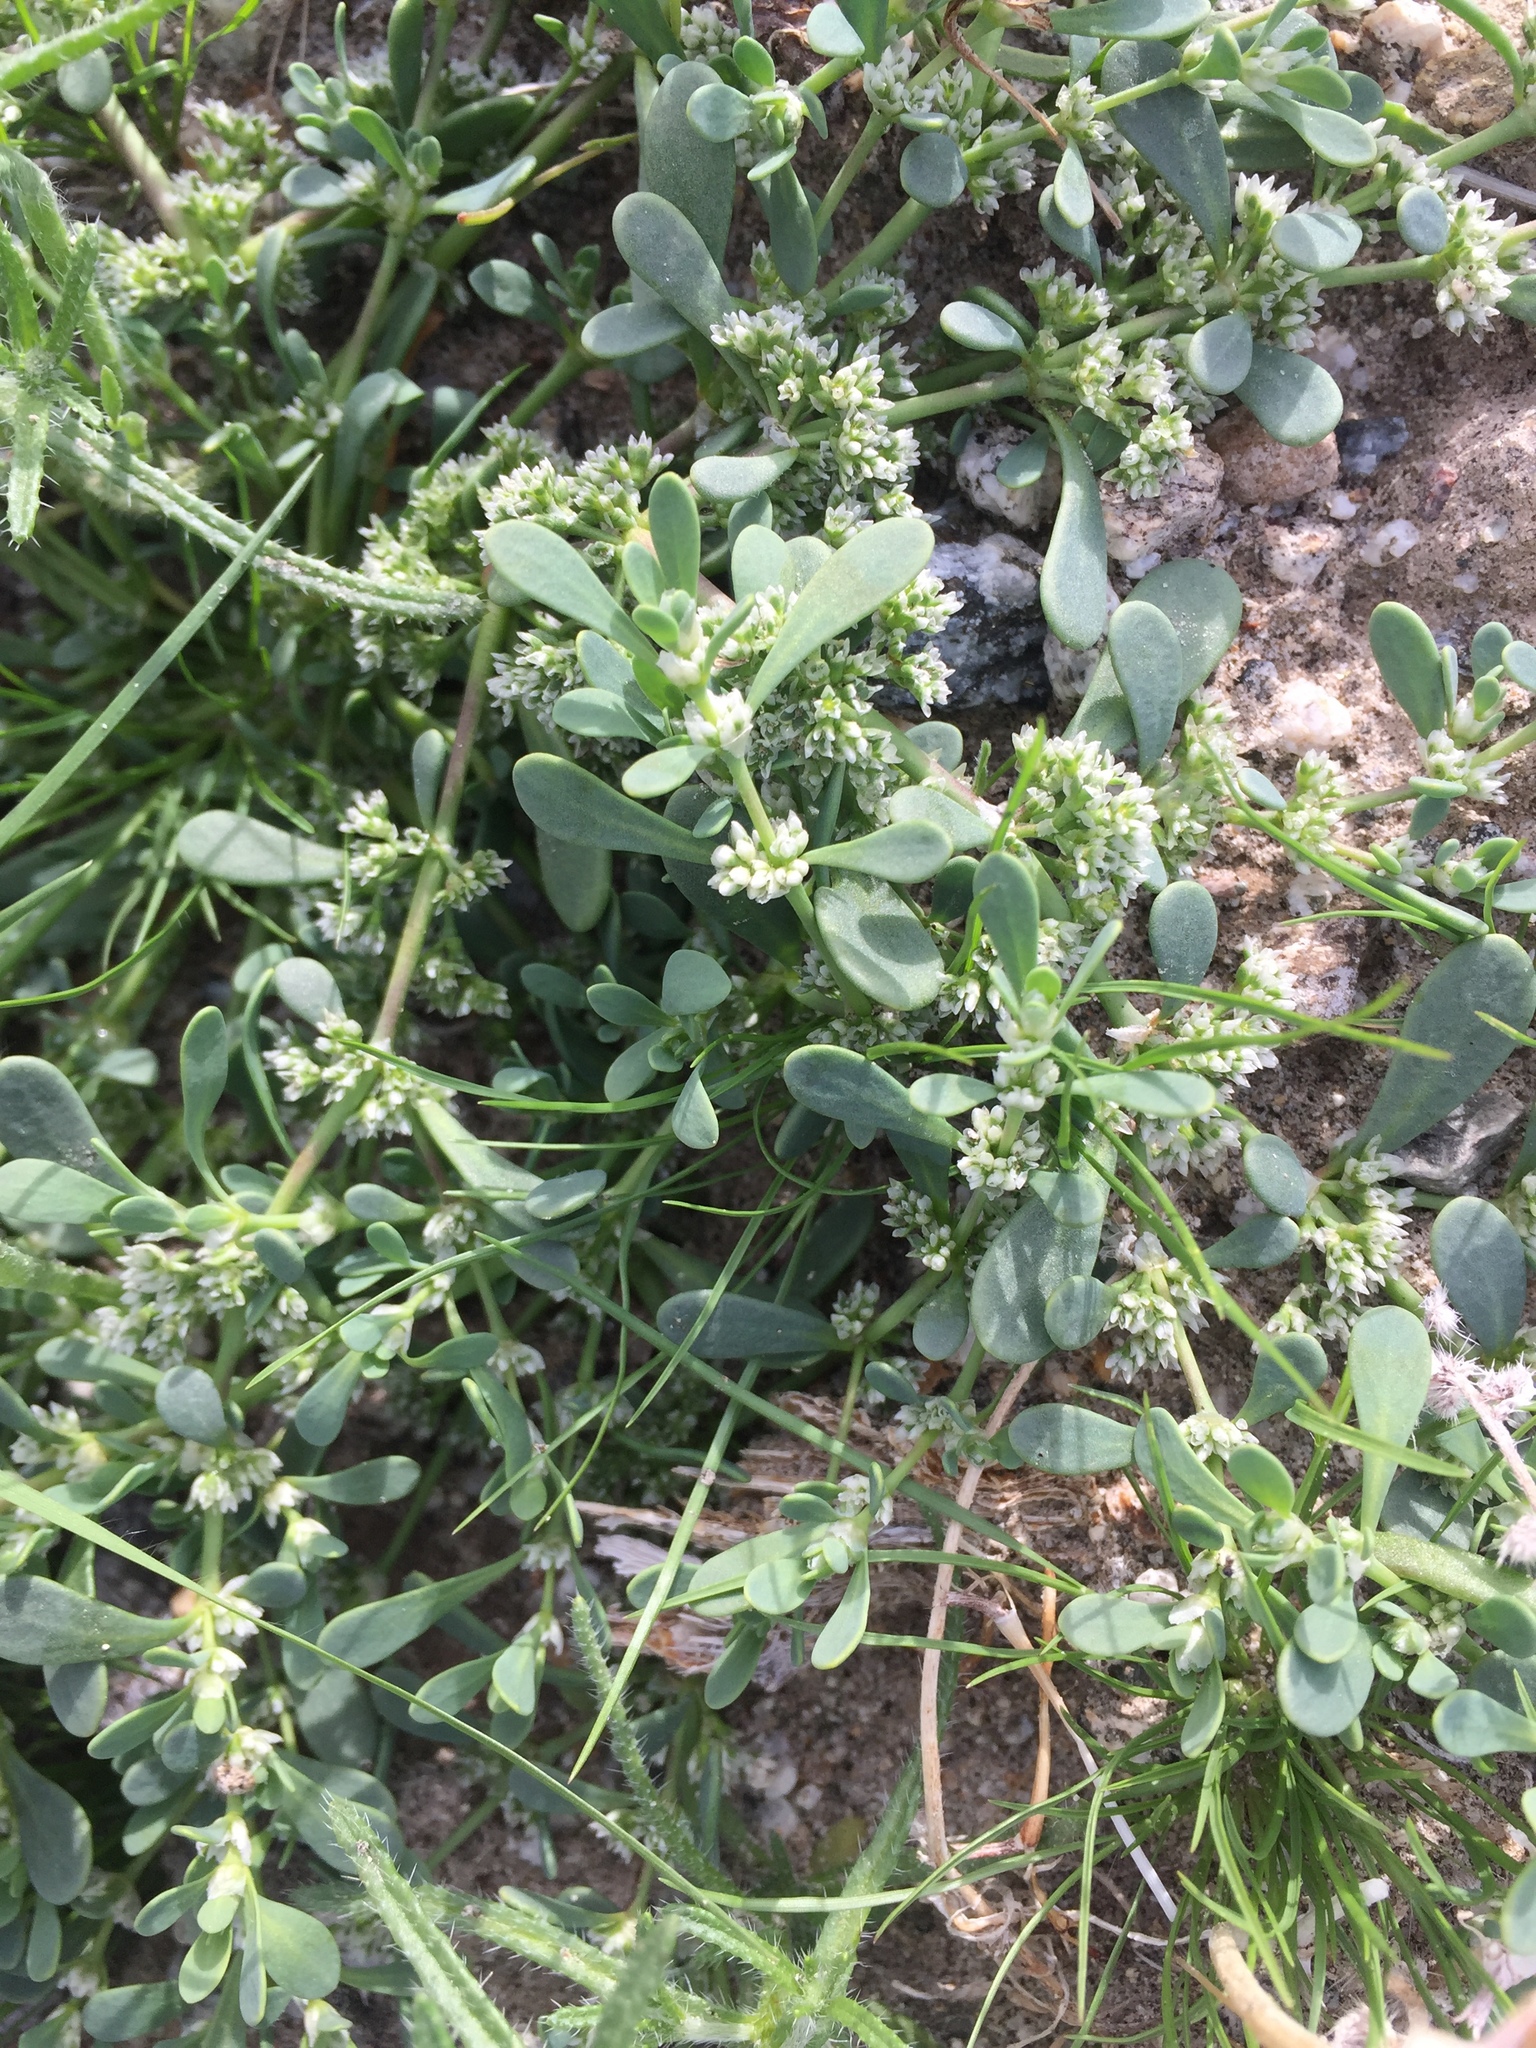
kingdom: Plantae
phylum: Tracheophyta
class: Magnoliopsida
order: Caryophyllales
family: Caryophyllaceae
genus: Achyronychia
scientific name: Achyronychia cooperi
